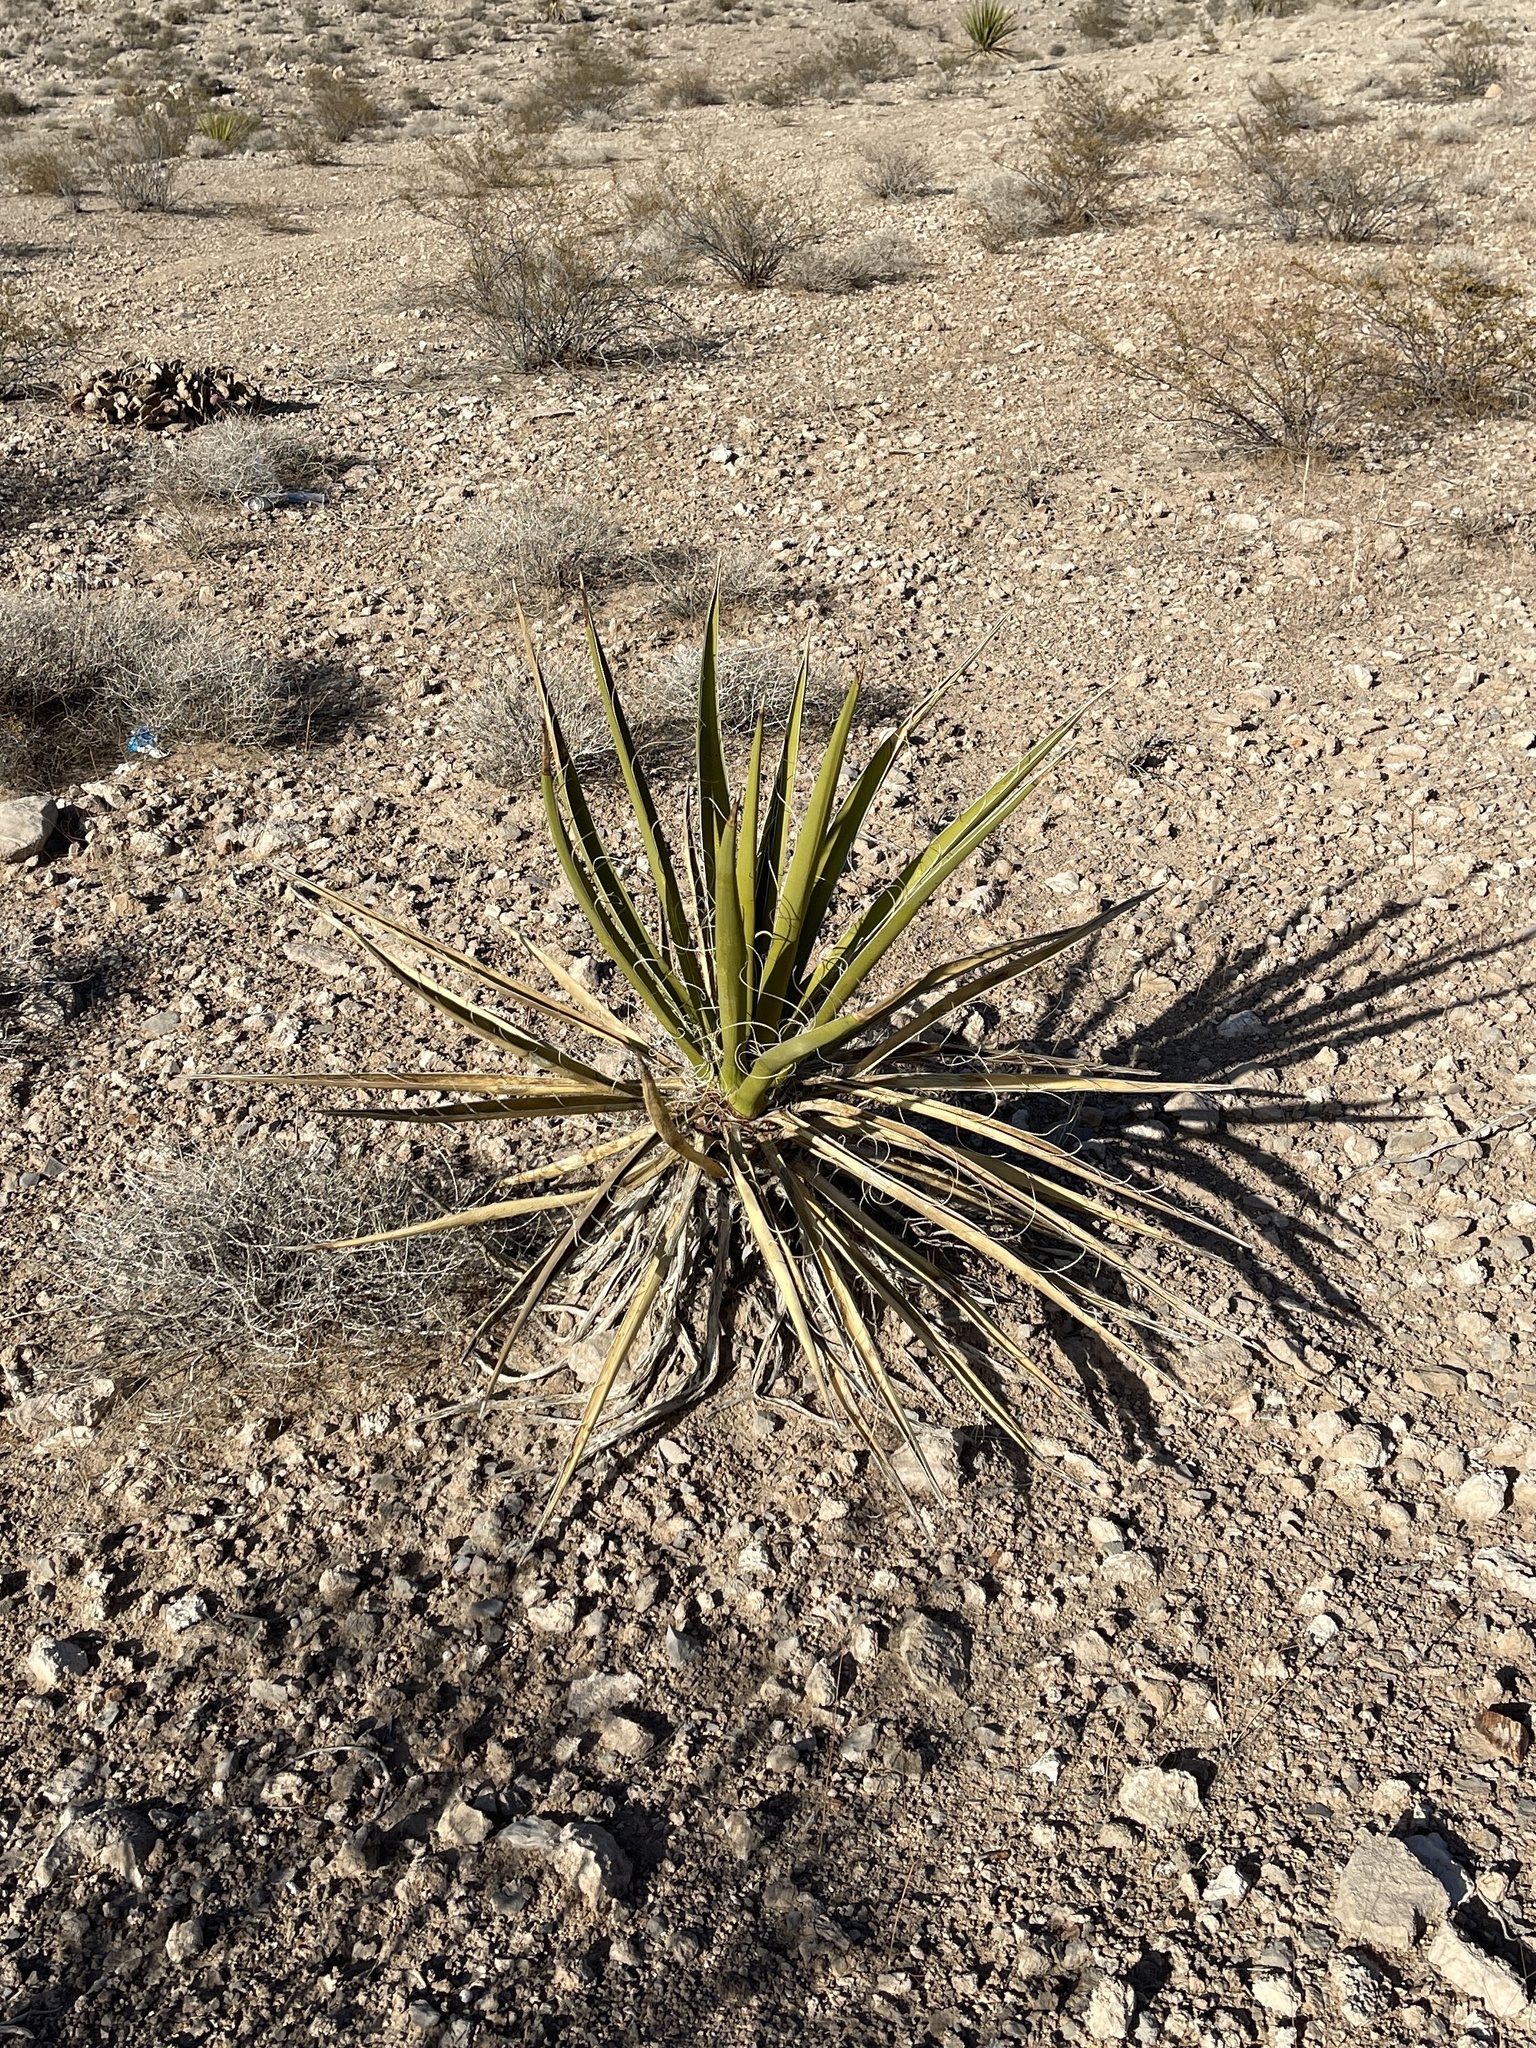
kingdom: Plantae
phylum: Tracheophyta
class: Liliopsida
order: Asparagales
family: Asparagaceae
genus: Yucca
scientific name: Yucca schidigera
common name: Mojave yucca
